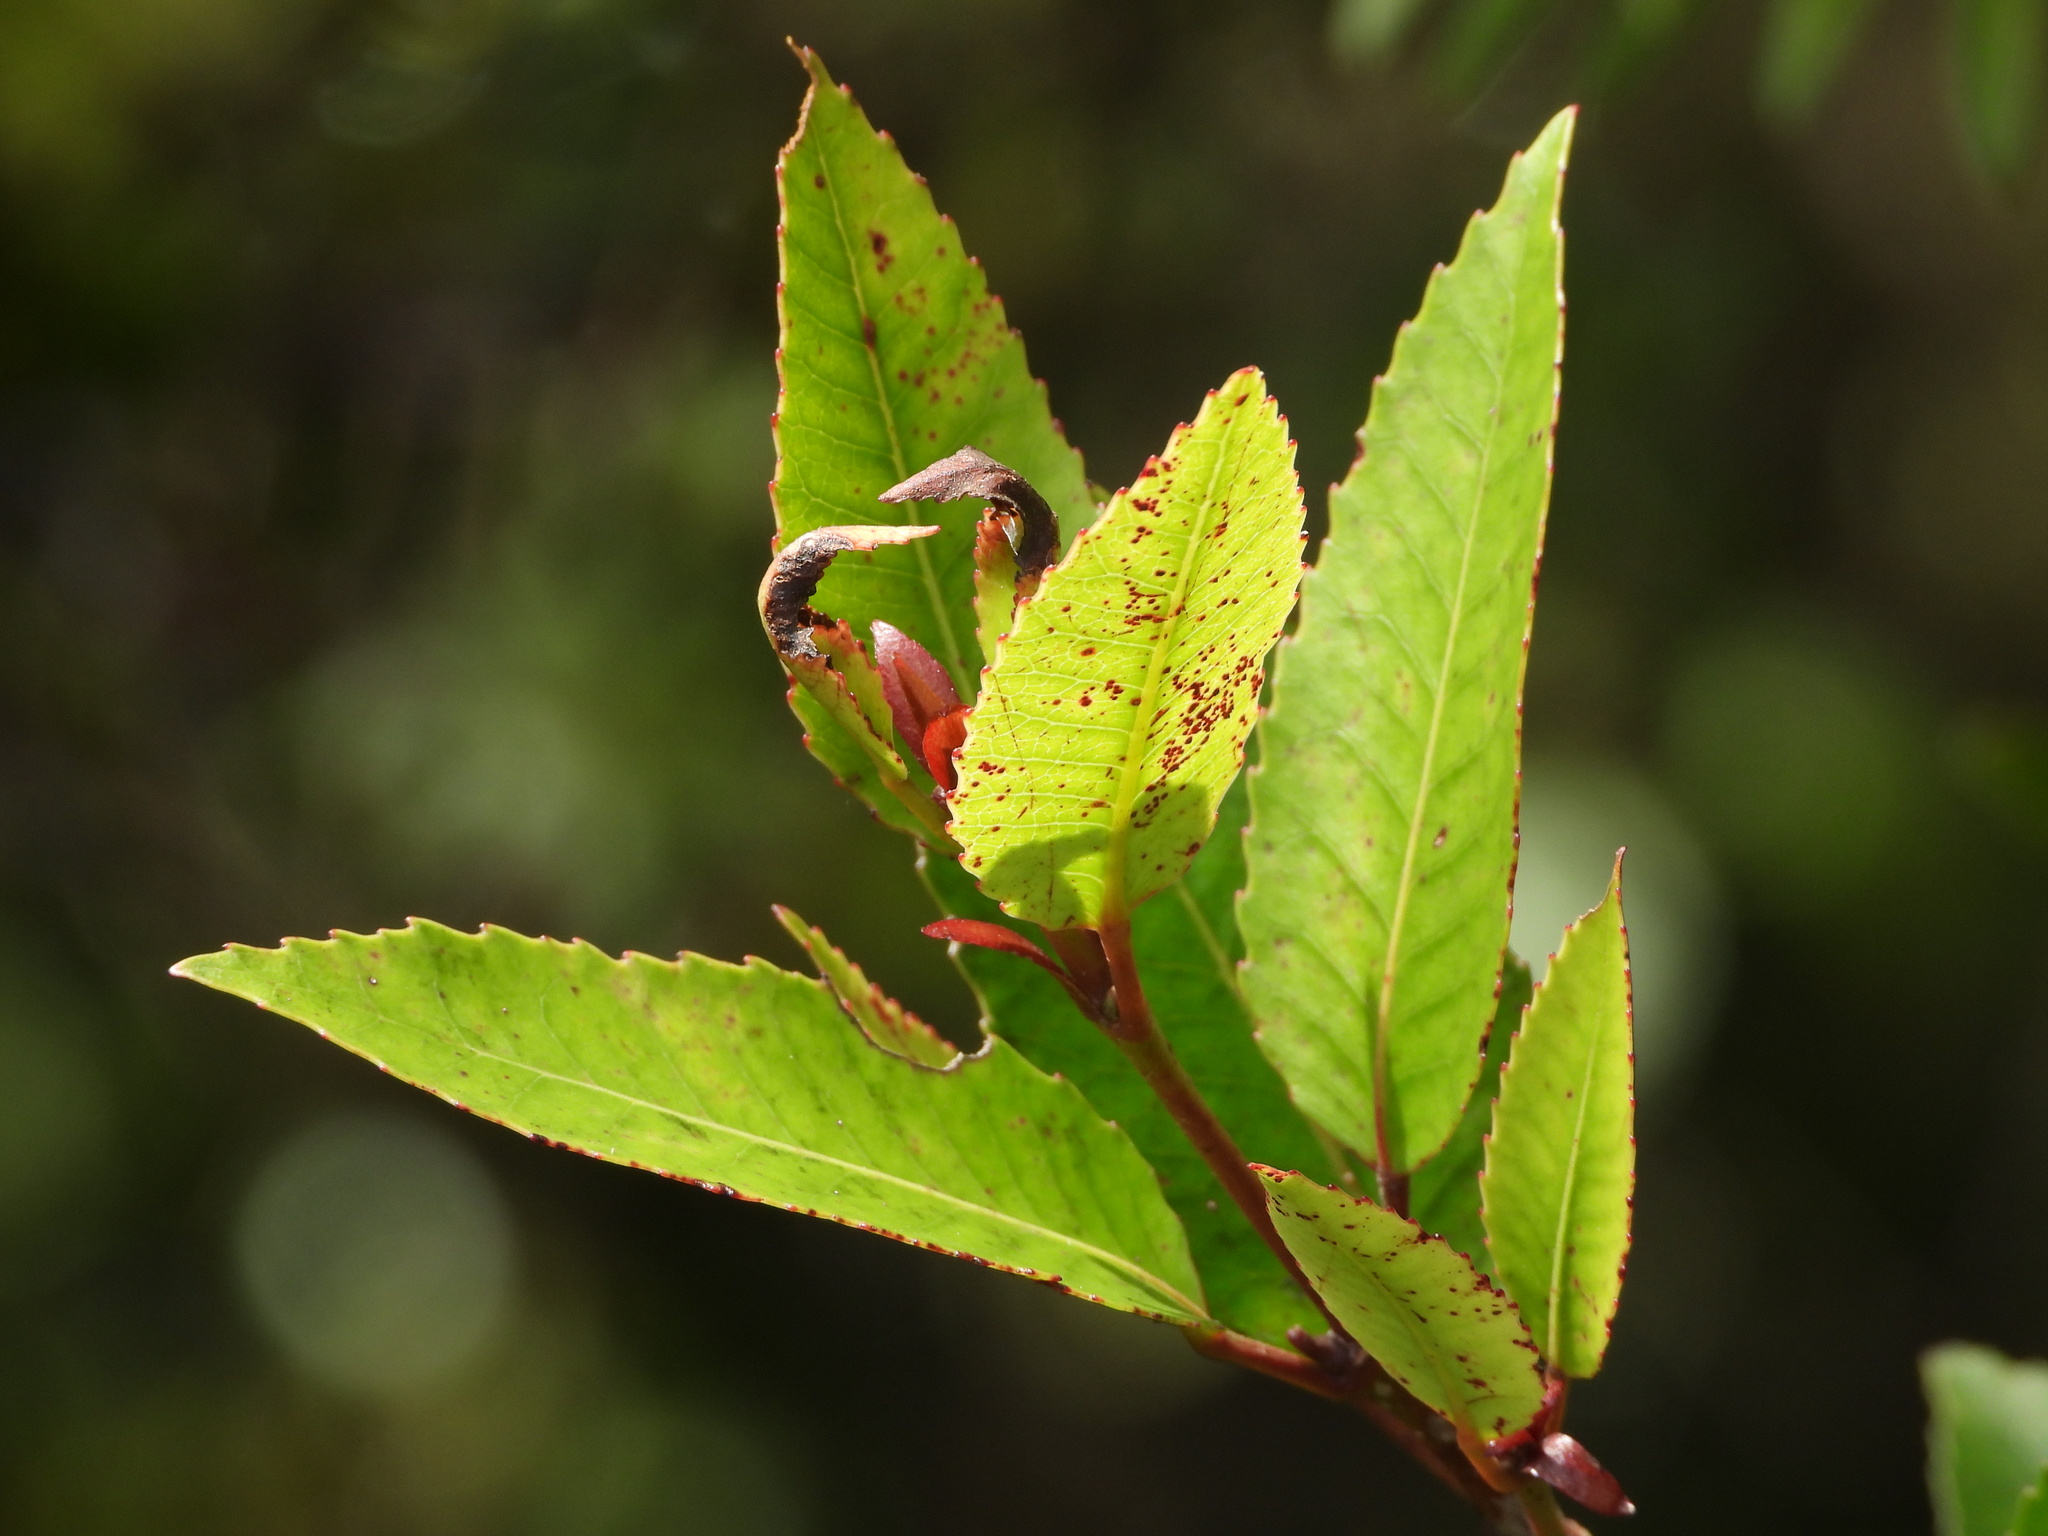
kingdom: Plantae
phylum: Tracheophyta
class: Magnoliopsida
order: Oxalidales
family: Cunoniaceae
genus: Pterophylla
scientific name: Pterophylla racemosa
